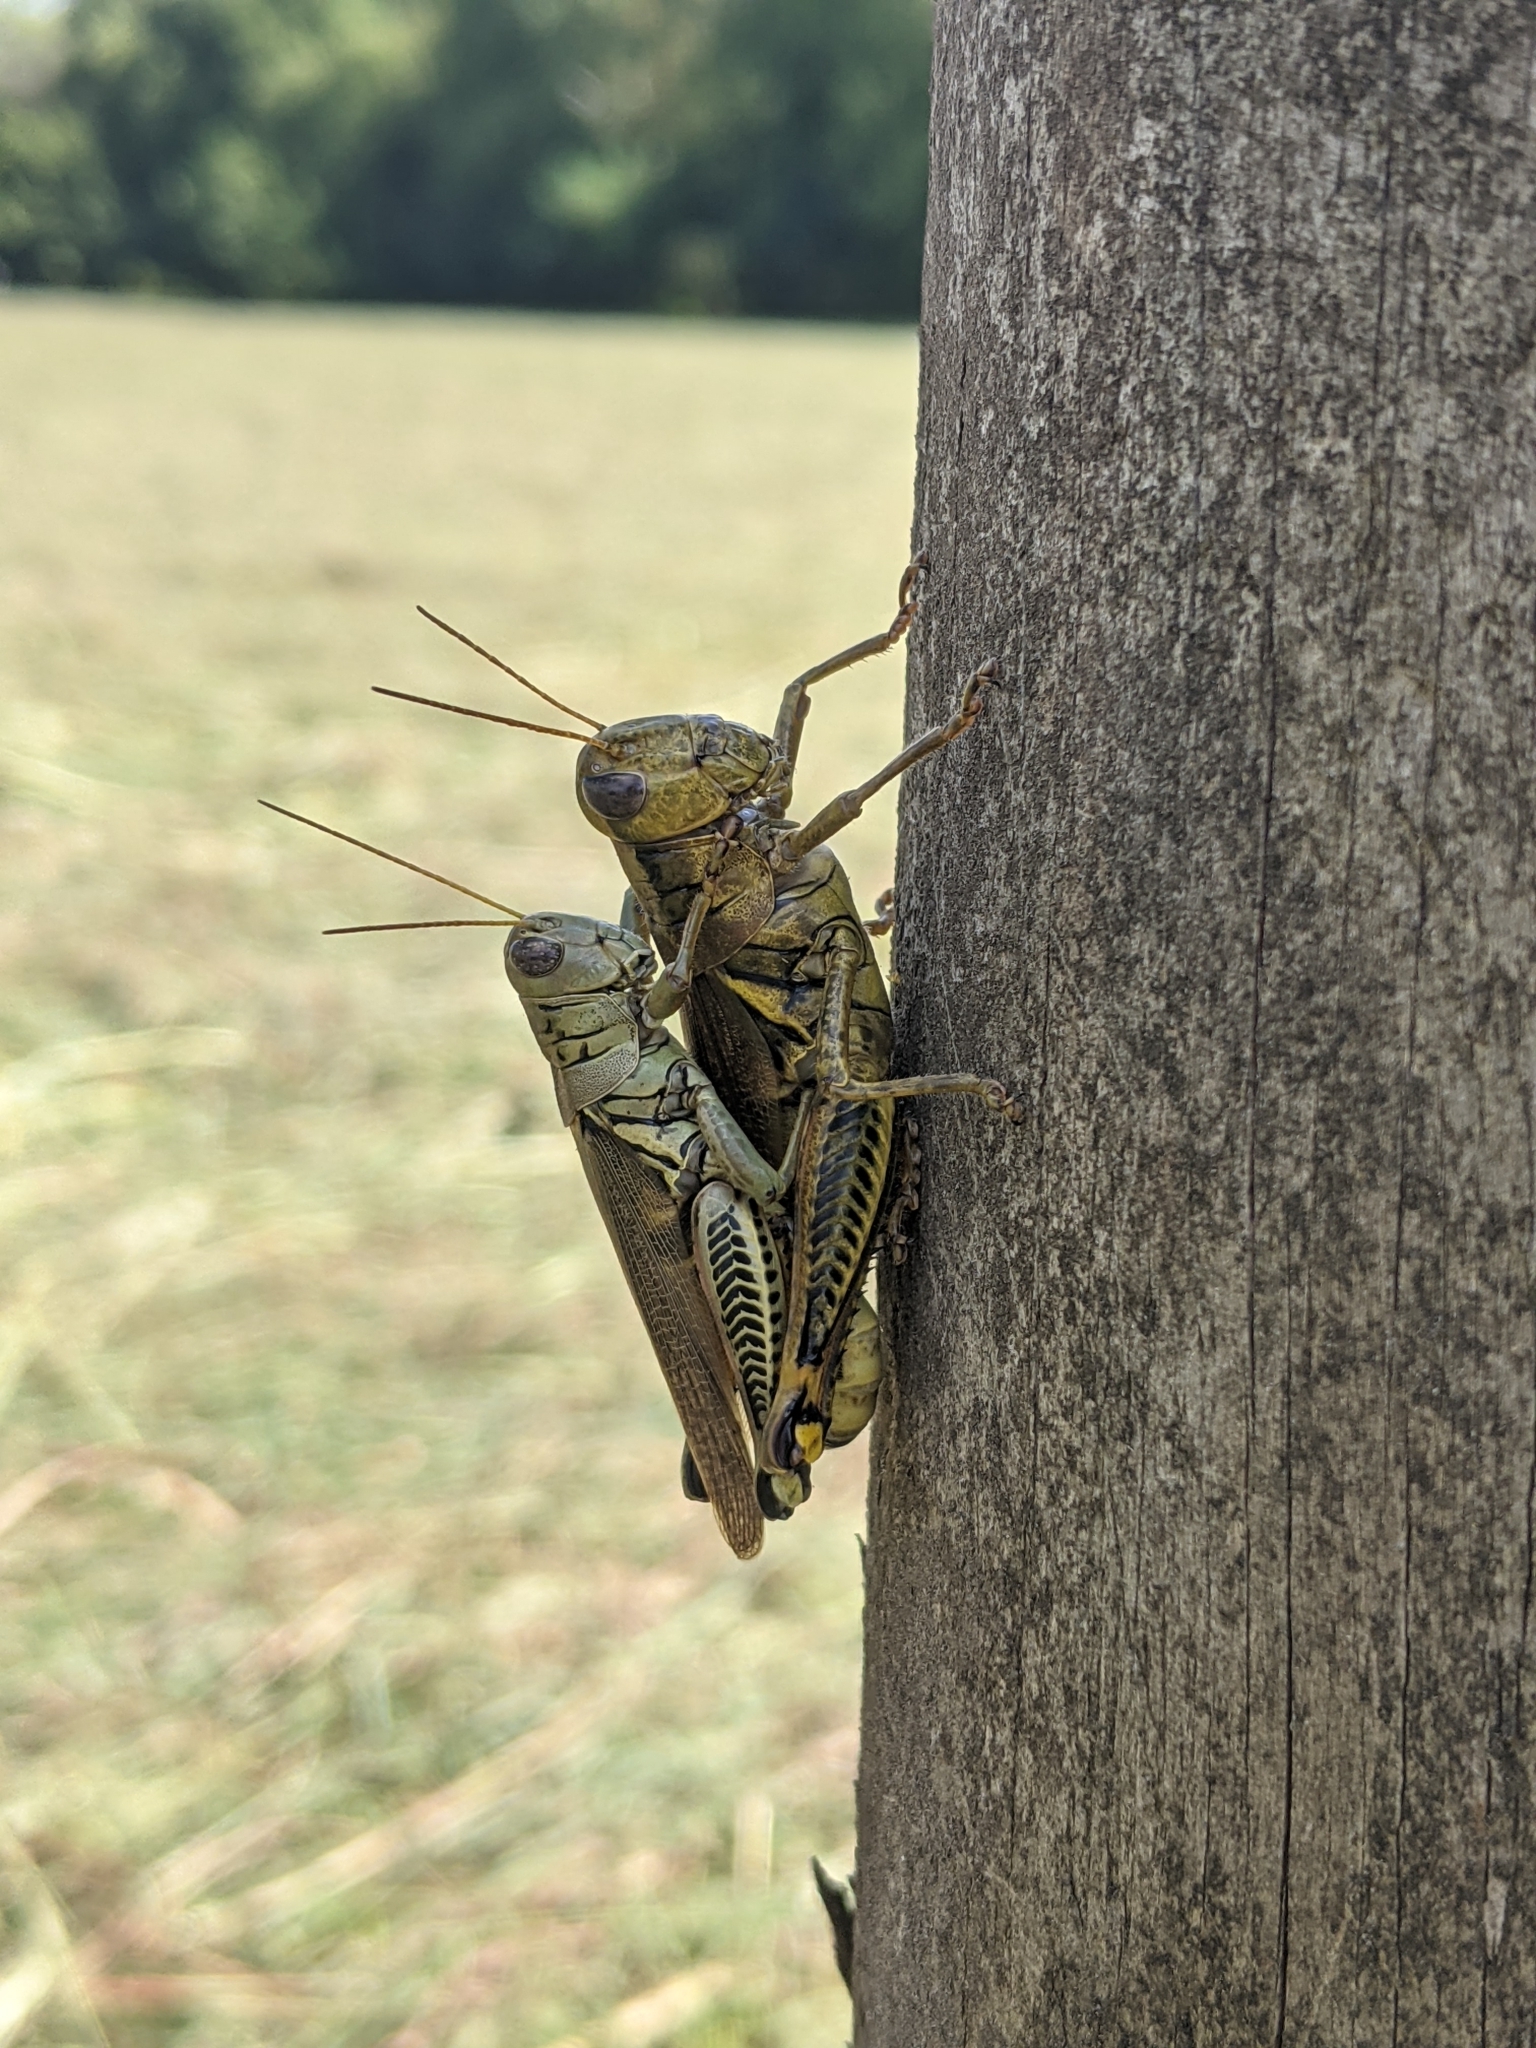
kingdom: Animalia
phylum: Arthropoda
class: Insecta
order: Orthoptera
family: Acrididae
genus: Melanoplus
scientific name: Melanoplus differentialis
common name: Differential grasshopper
